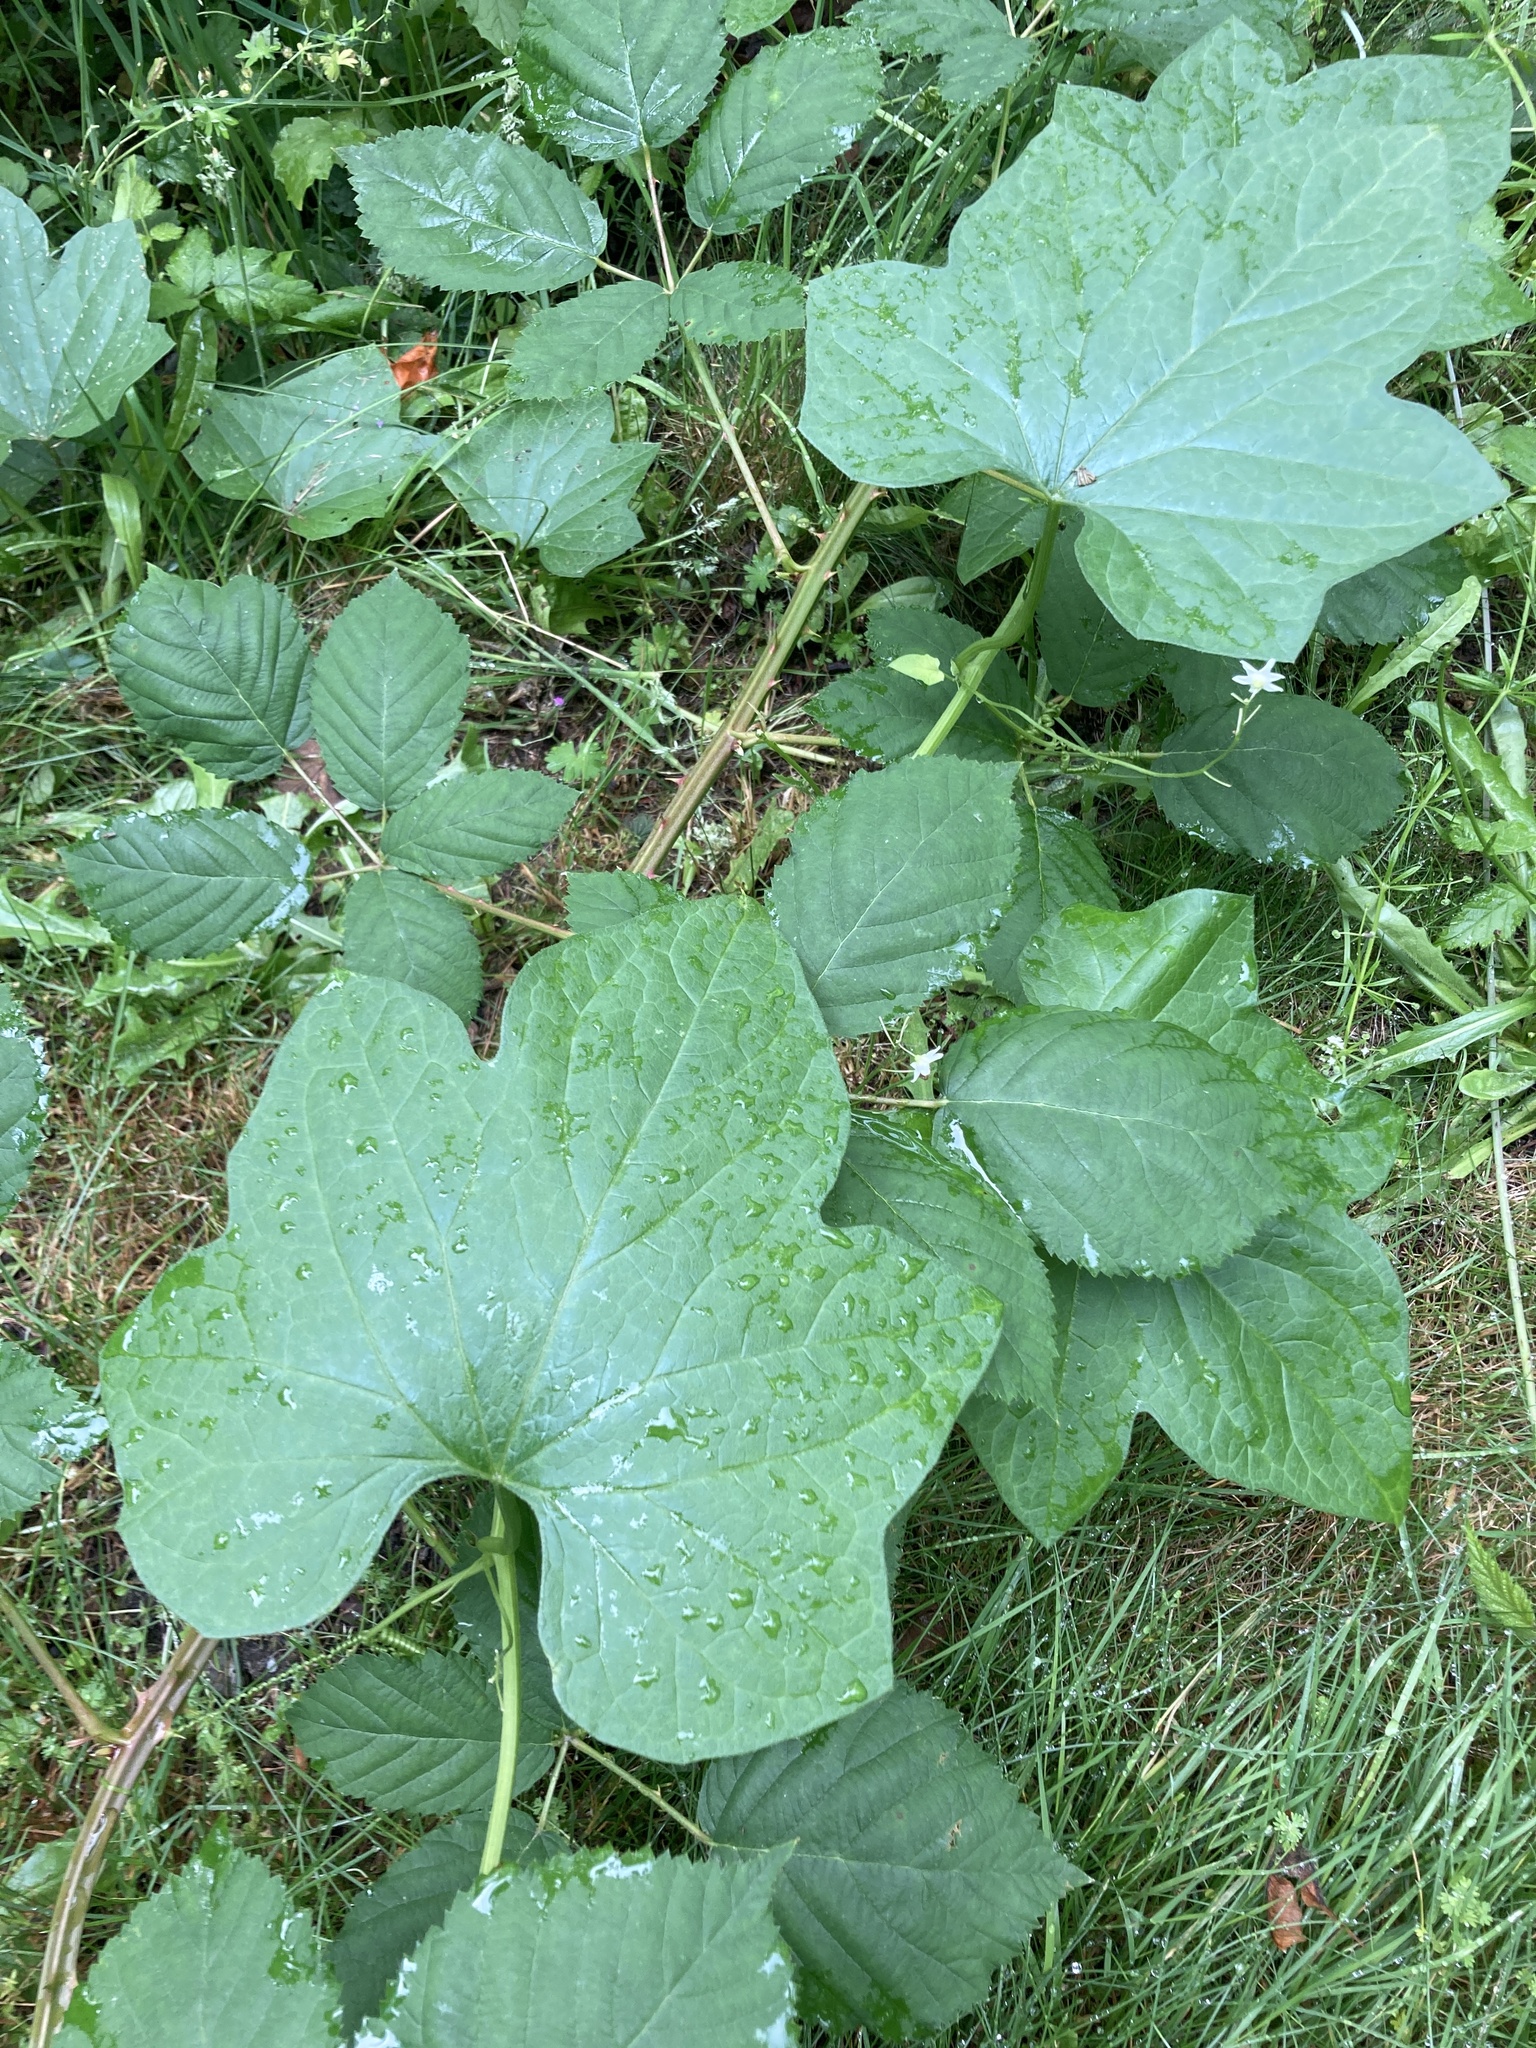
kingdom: Plantae
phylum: Tracheophyta
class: Magnoliopsida
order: Cucurbitales
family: Cucurbitaceae
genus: Marah
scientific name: Marah oregana
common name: Coastal manroot
